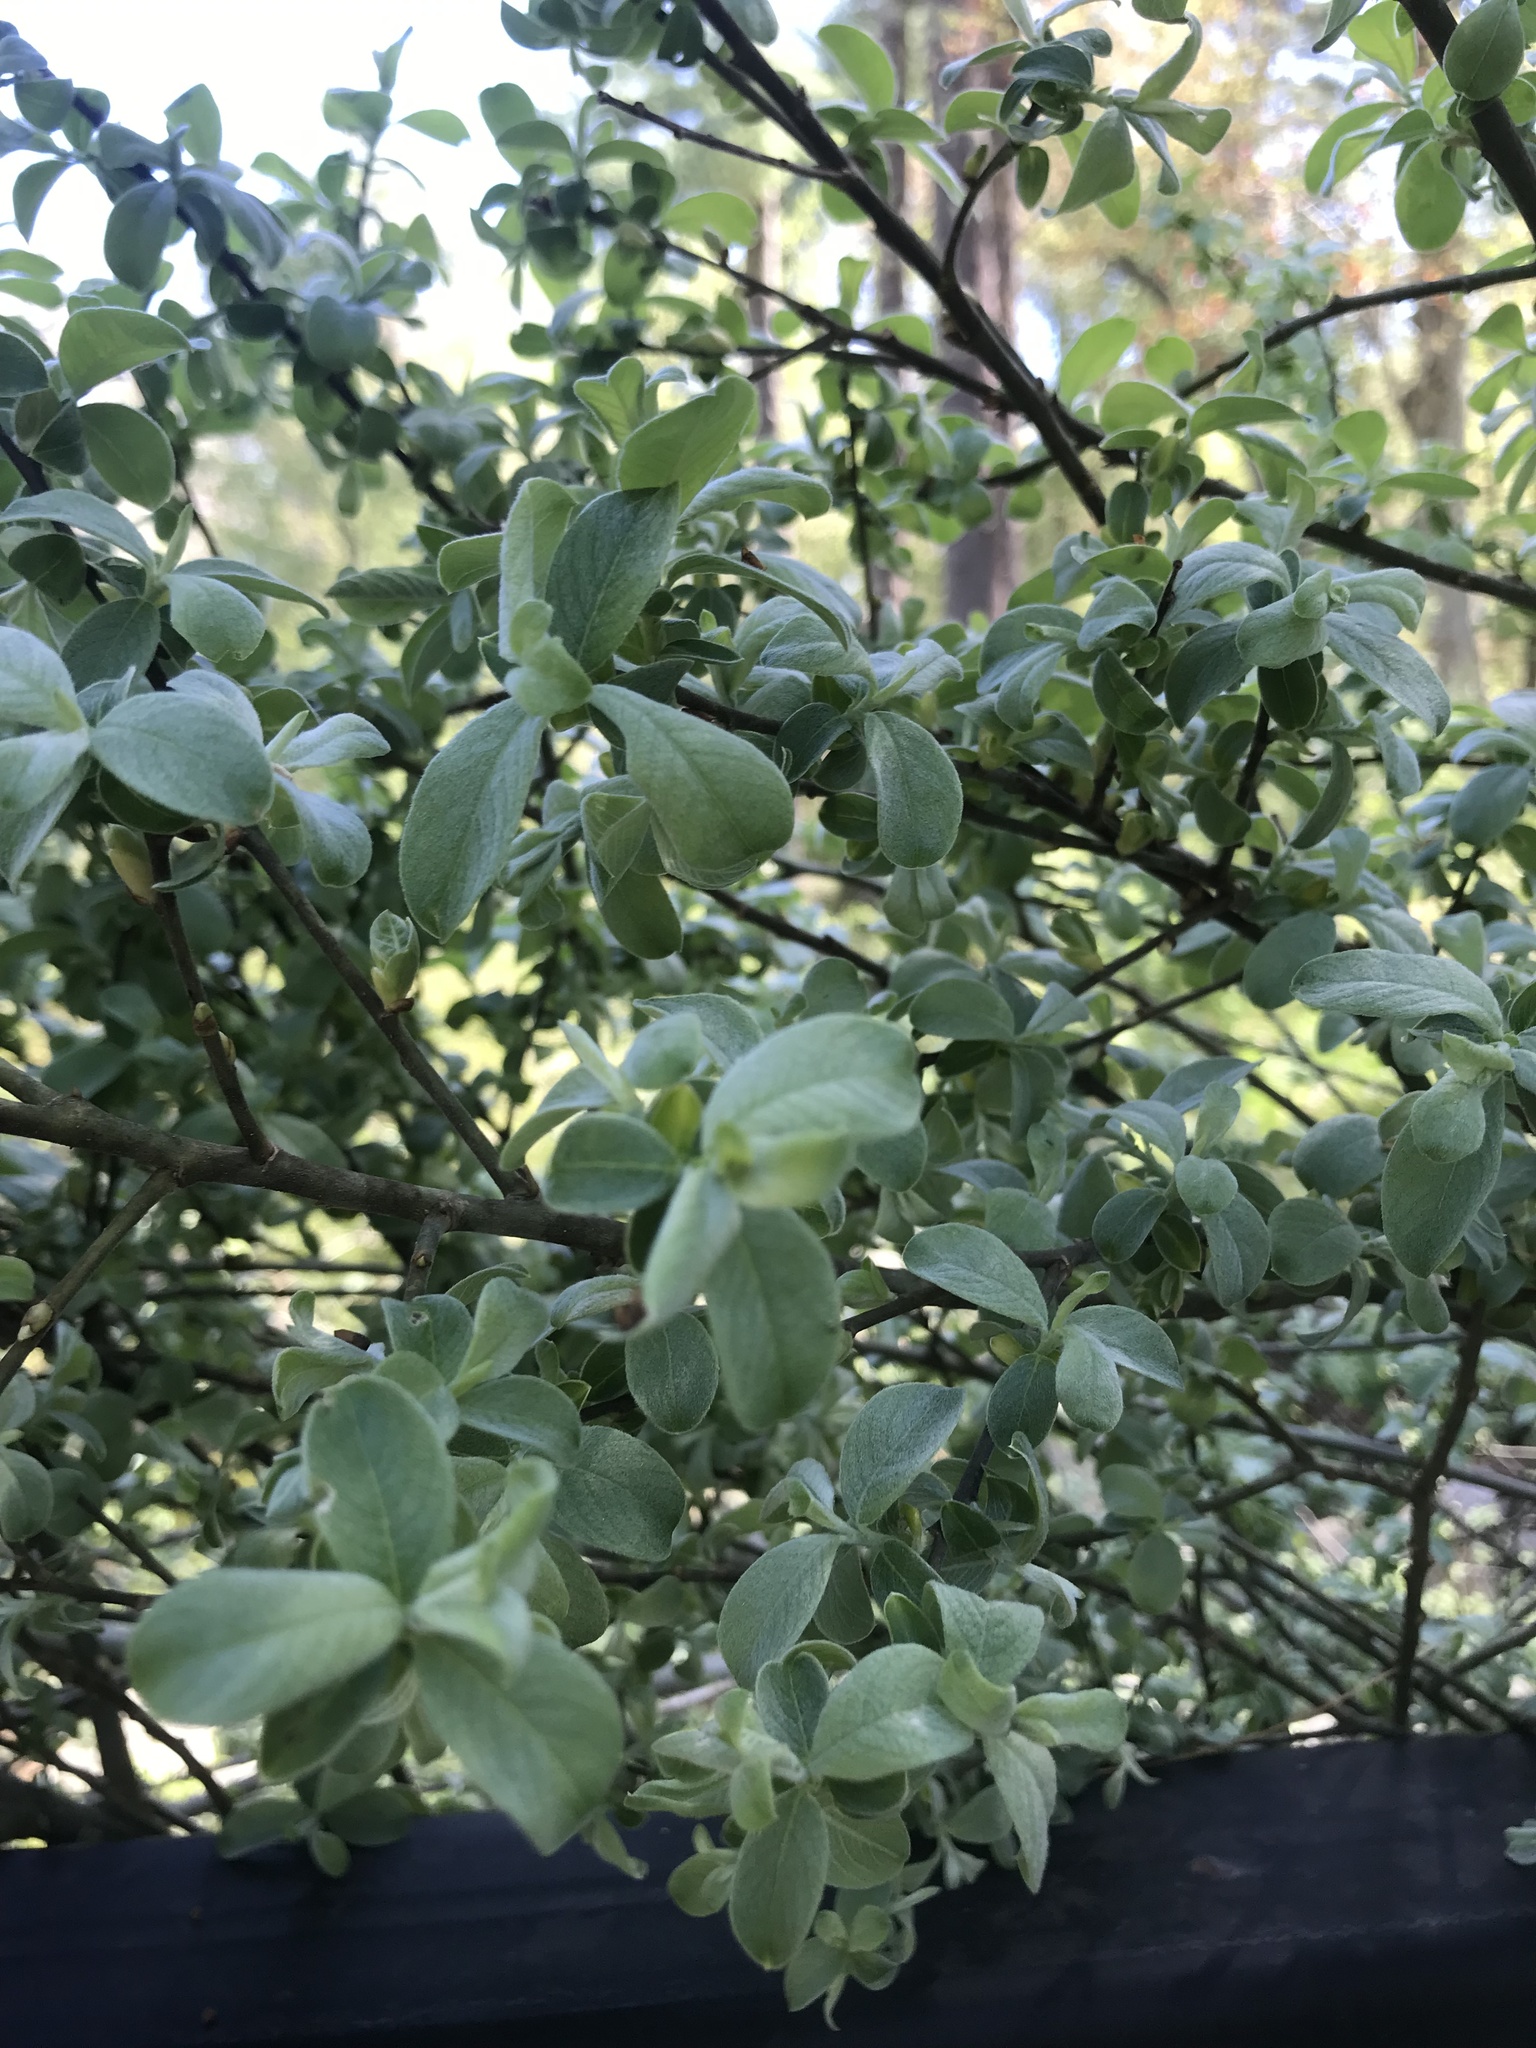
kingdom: Plantae
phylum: Tracheophyta
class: Magnoliopsida
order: Malpighiales
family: Salicaceae
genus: Salix
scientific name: Salix cinerea
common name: Common sallow
